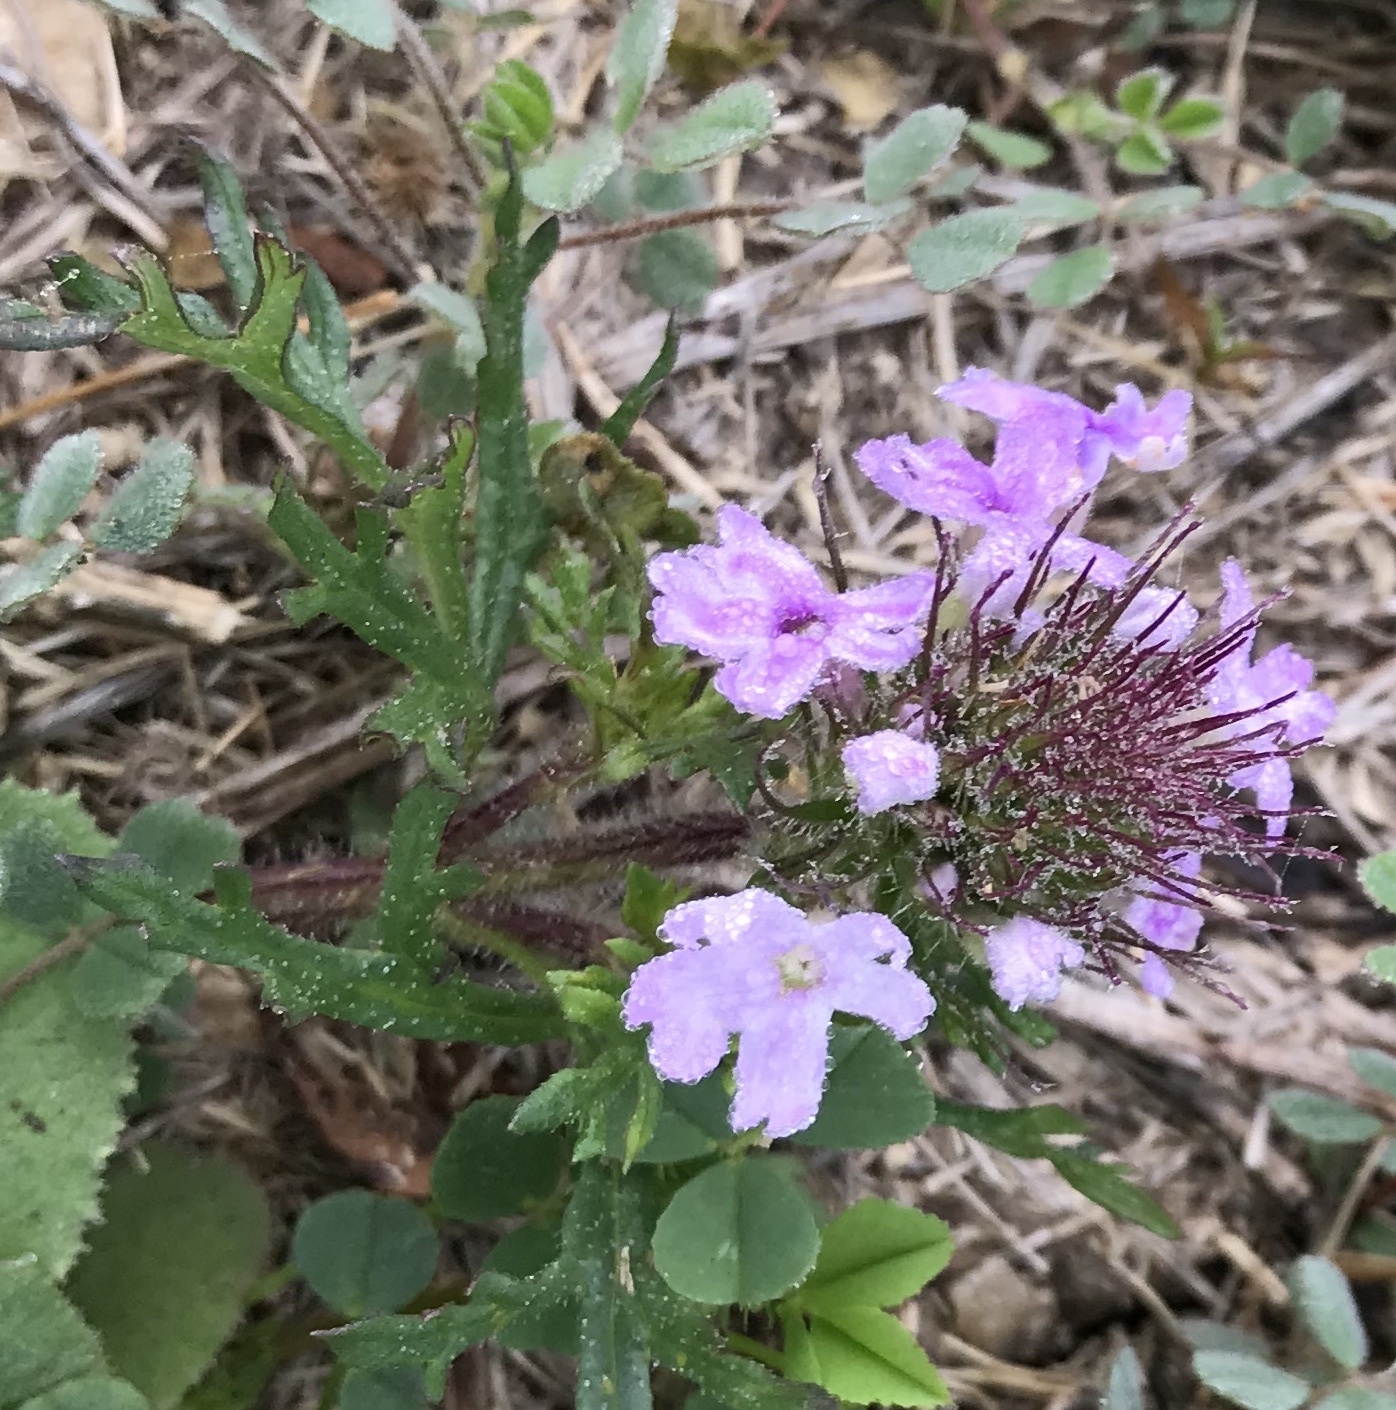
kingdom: Plantae
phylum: Tracheophyta
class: Magnoliopsida
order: Lamiales
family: Verbenaceae
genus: Verbena
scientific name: Verbena bipinnatifida
